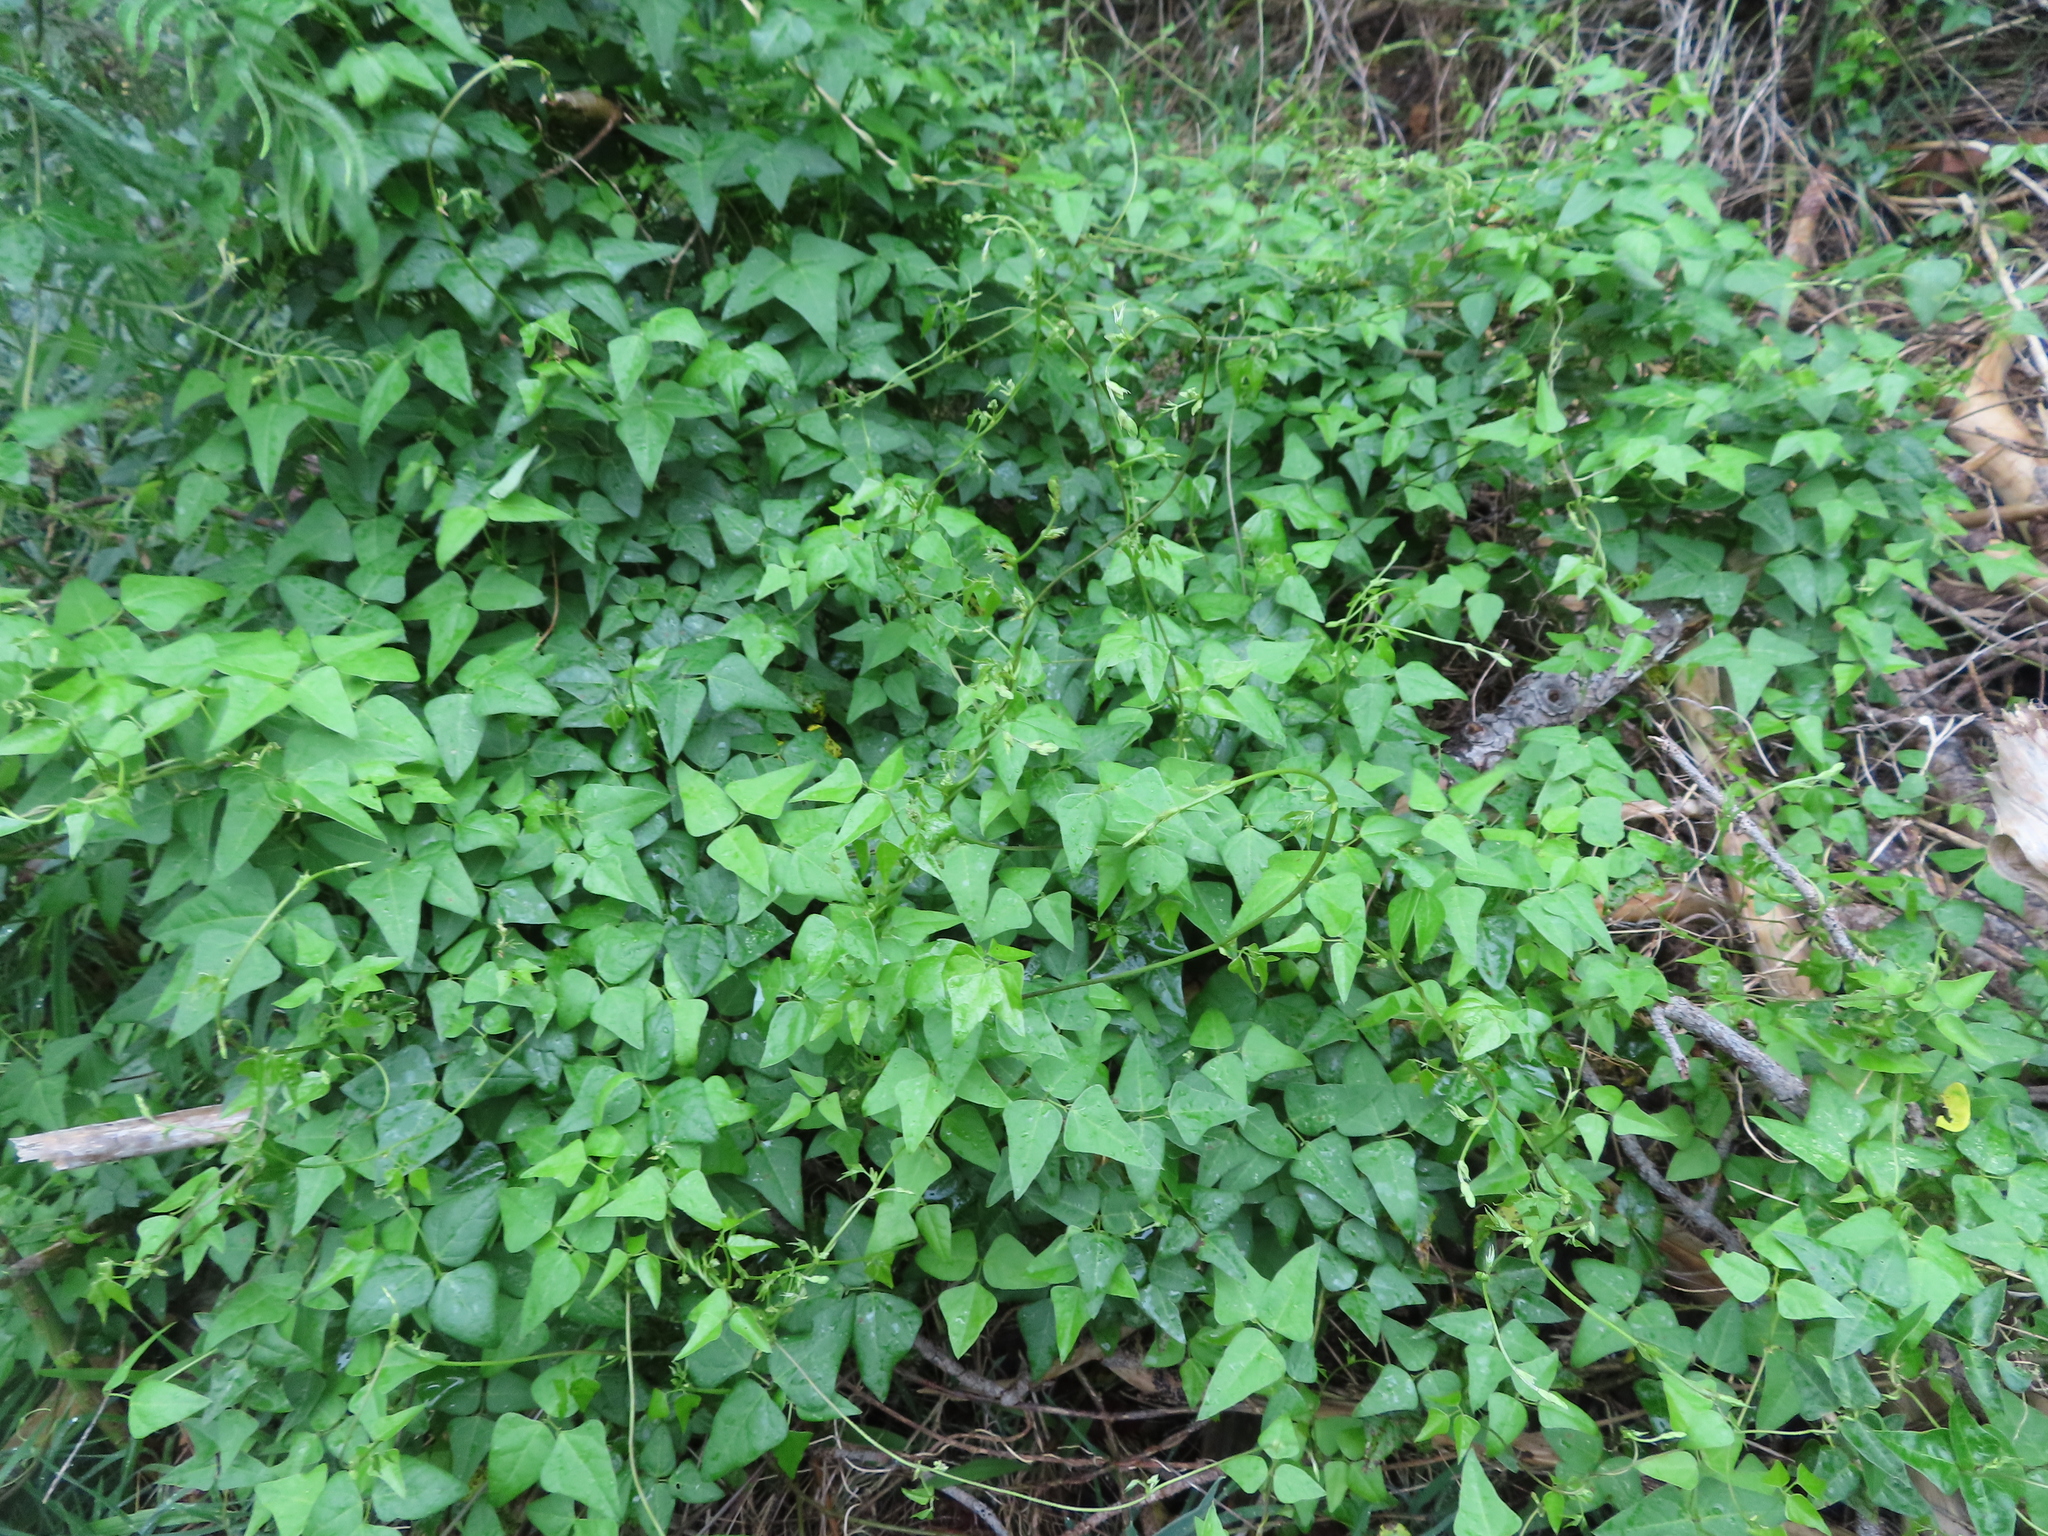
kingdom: Plantae
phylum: Tracheophyta
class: Magnoliopsida
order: Fabales
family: Fabaceae
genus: Dipogon
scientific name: Dipogon lignosus
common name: Okie bean
